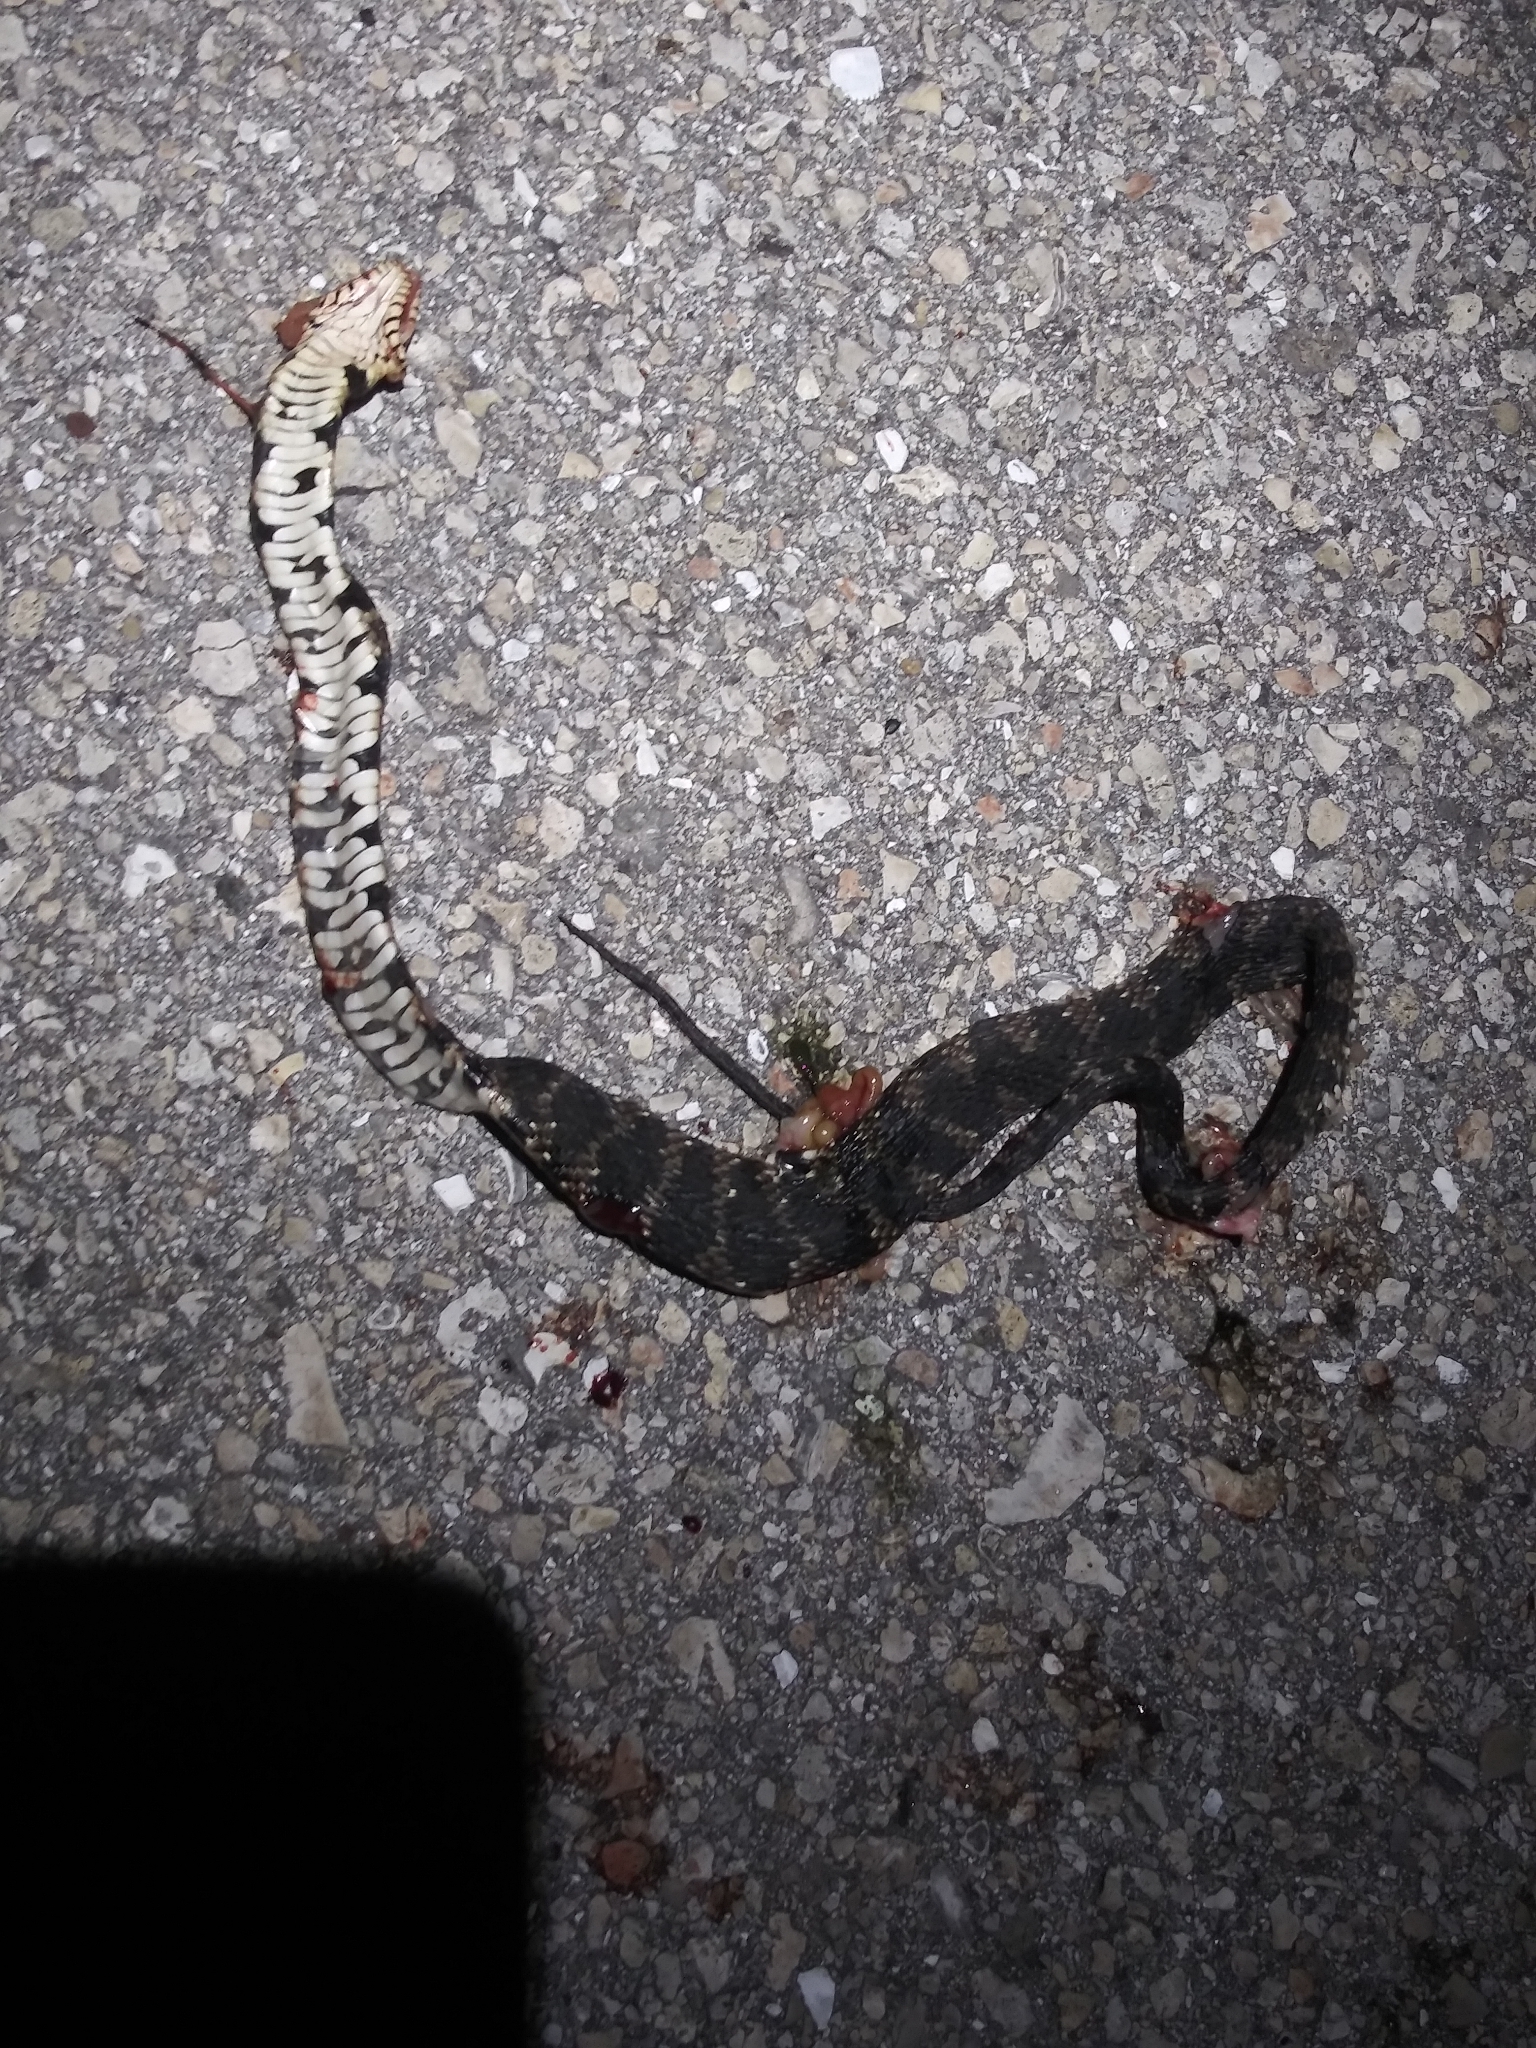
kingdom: Animalia
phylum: Chordata
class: Squamata
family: Colubridae
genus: Nerodia
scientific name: Nerodia fasciata
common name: Southern water snake
